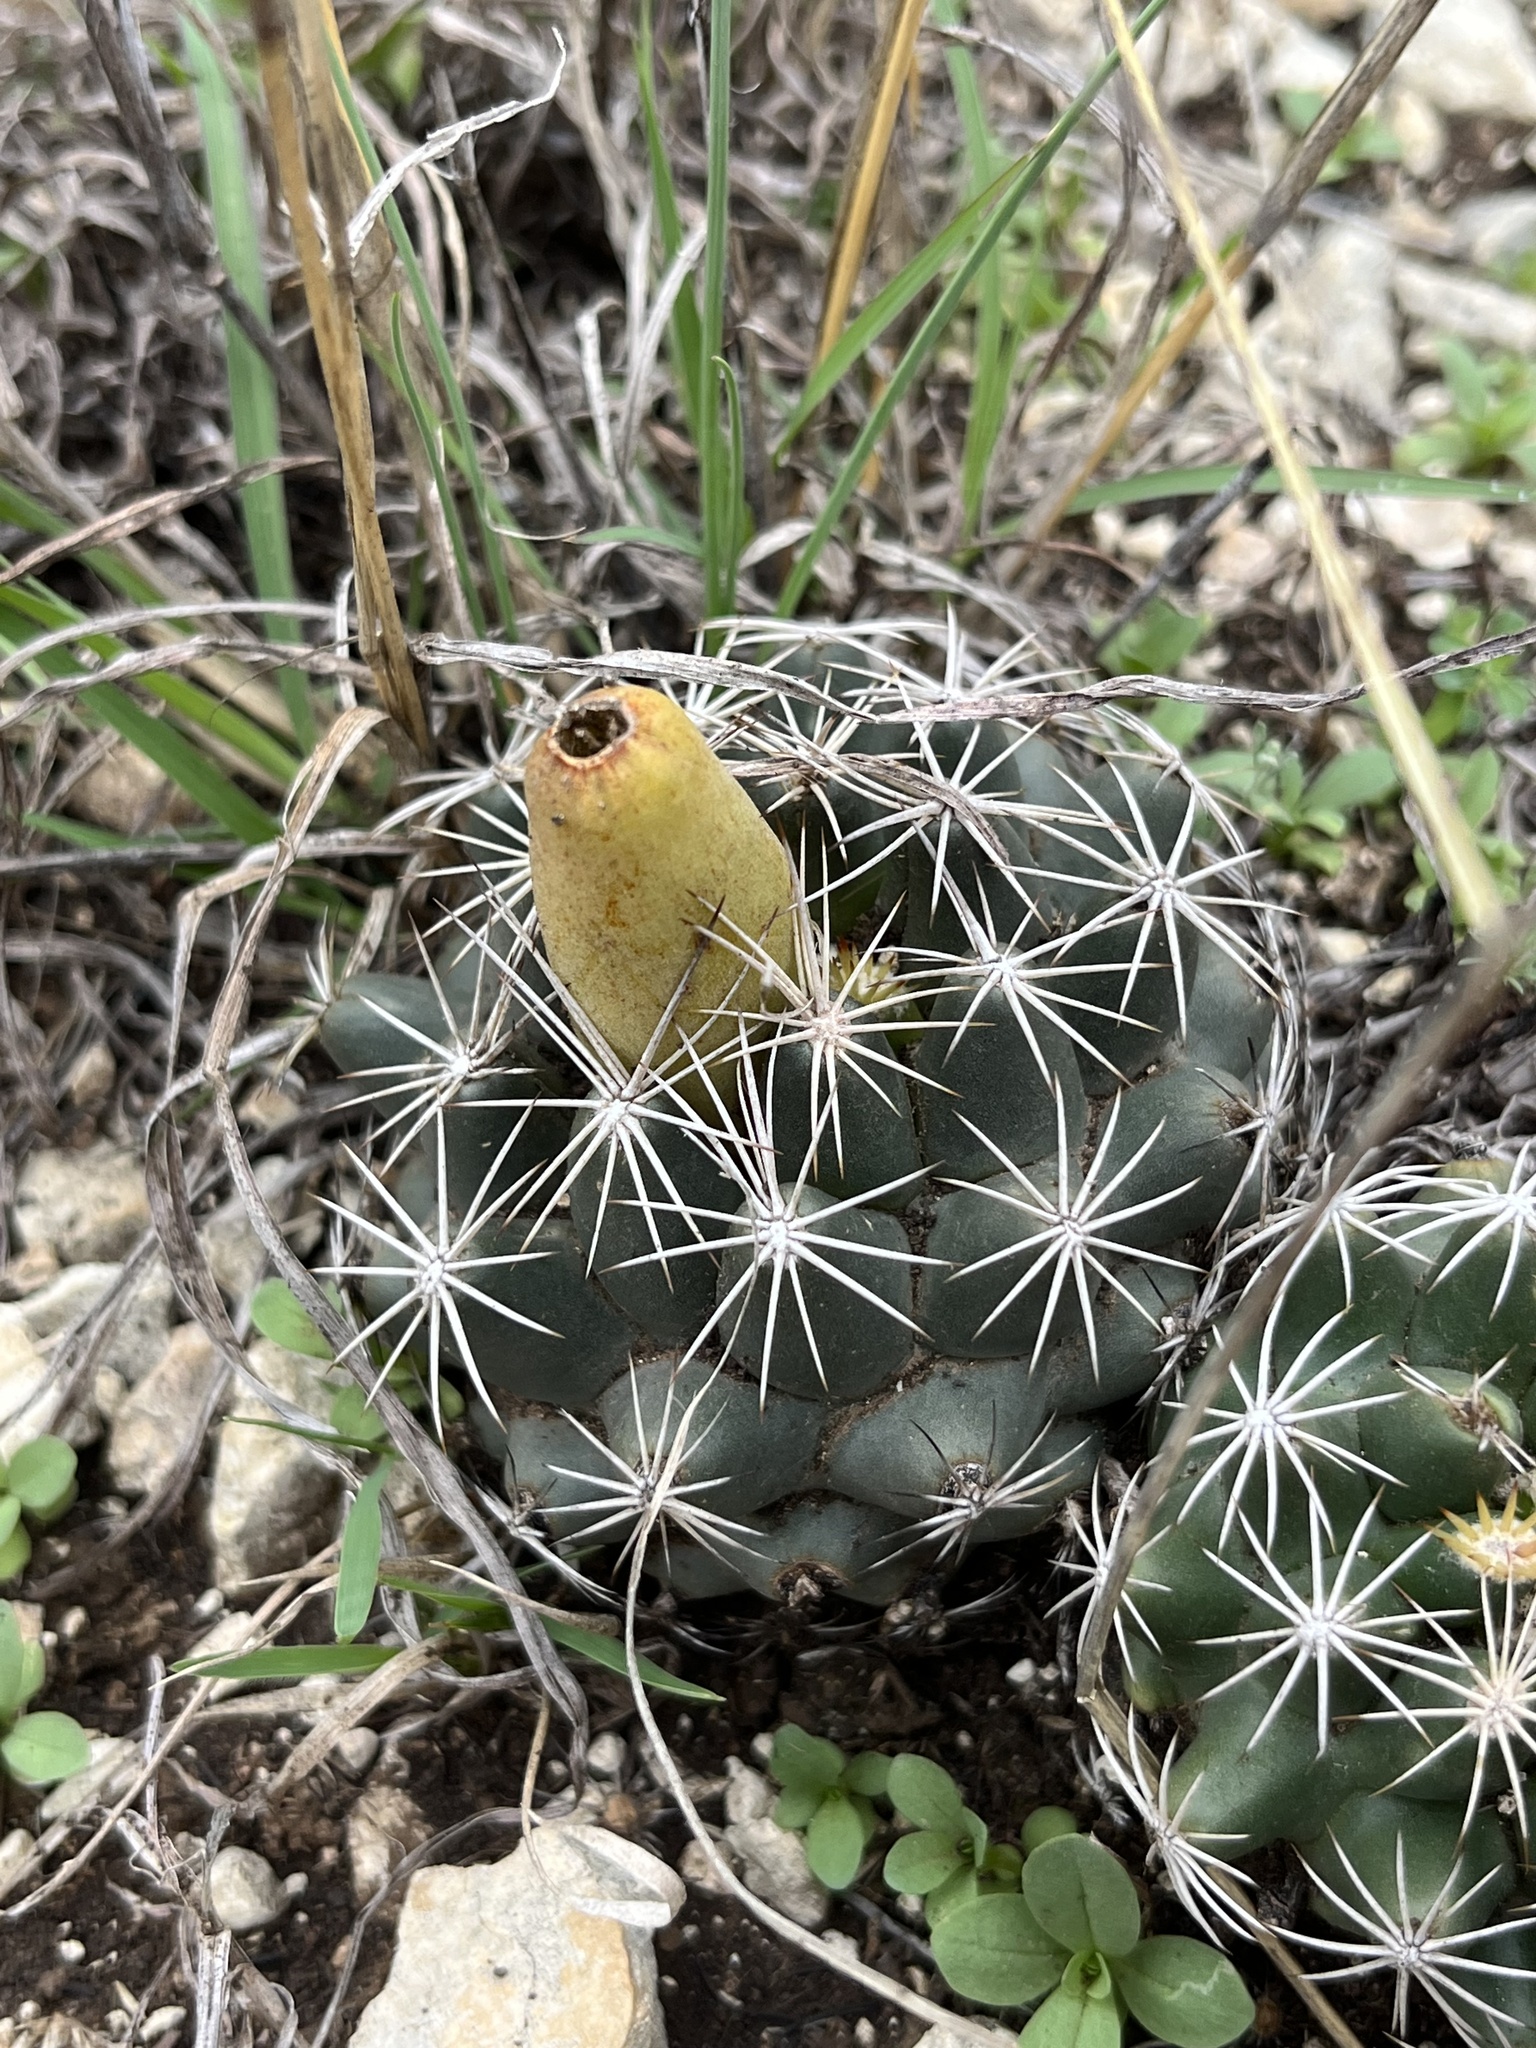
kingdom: Plantae
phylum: Tracheophyta
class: Magnoliopsida
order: Caryophyllales
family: Cactaceae
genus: Coryphantha
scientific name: Coryphantha sulcata
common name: Finger cactus
